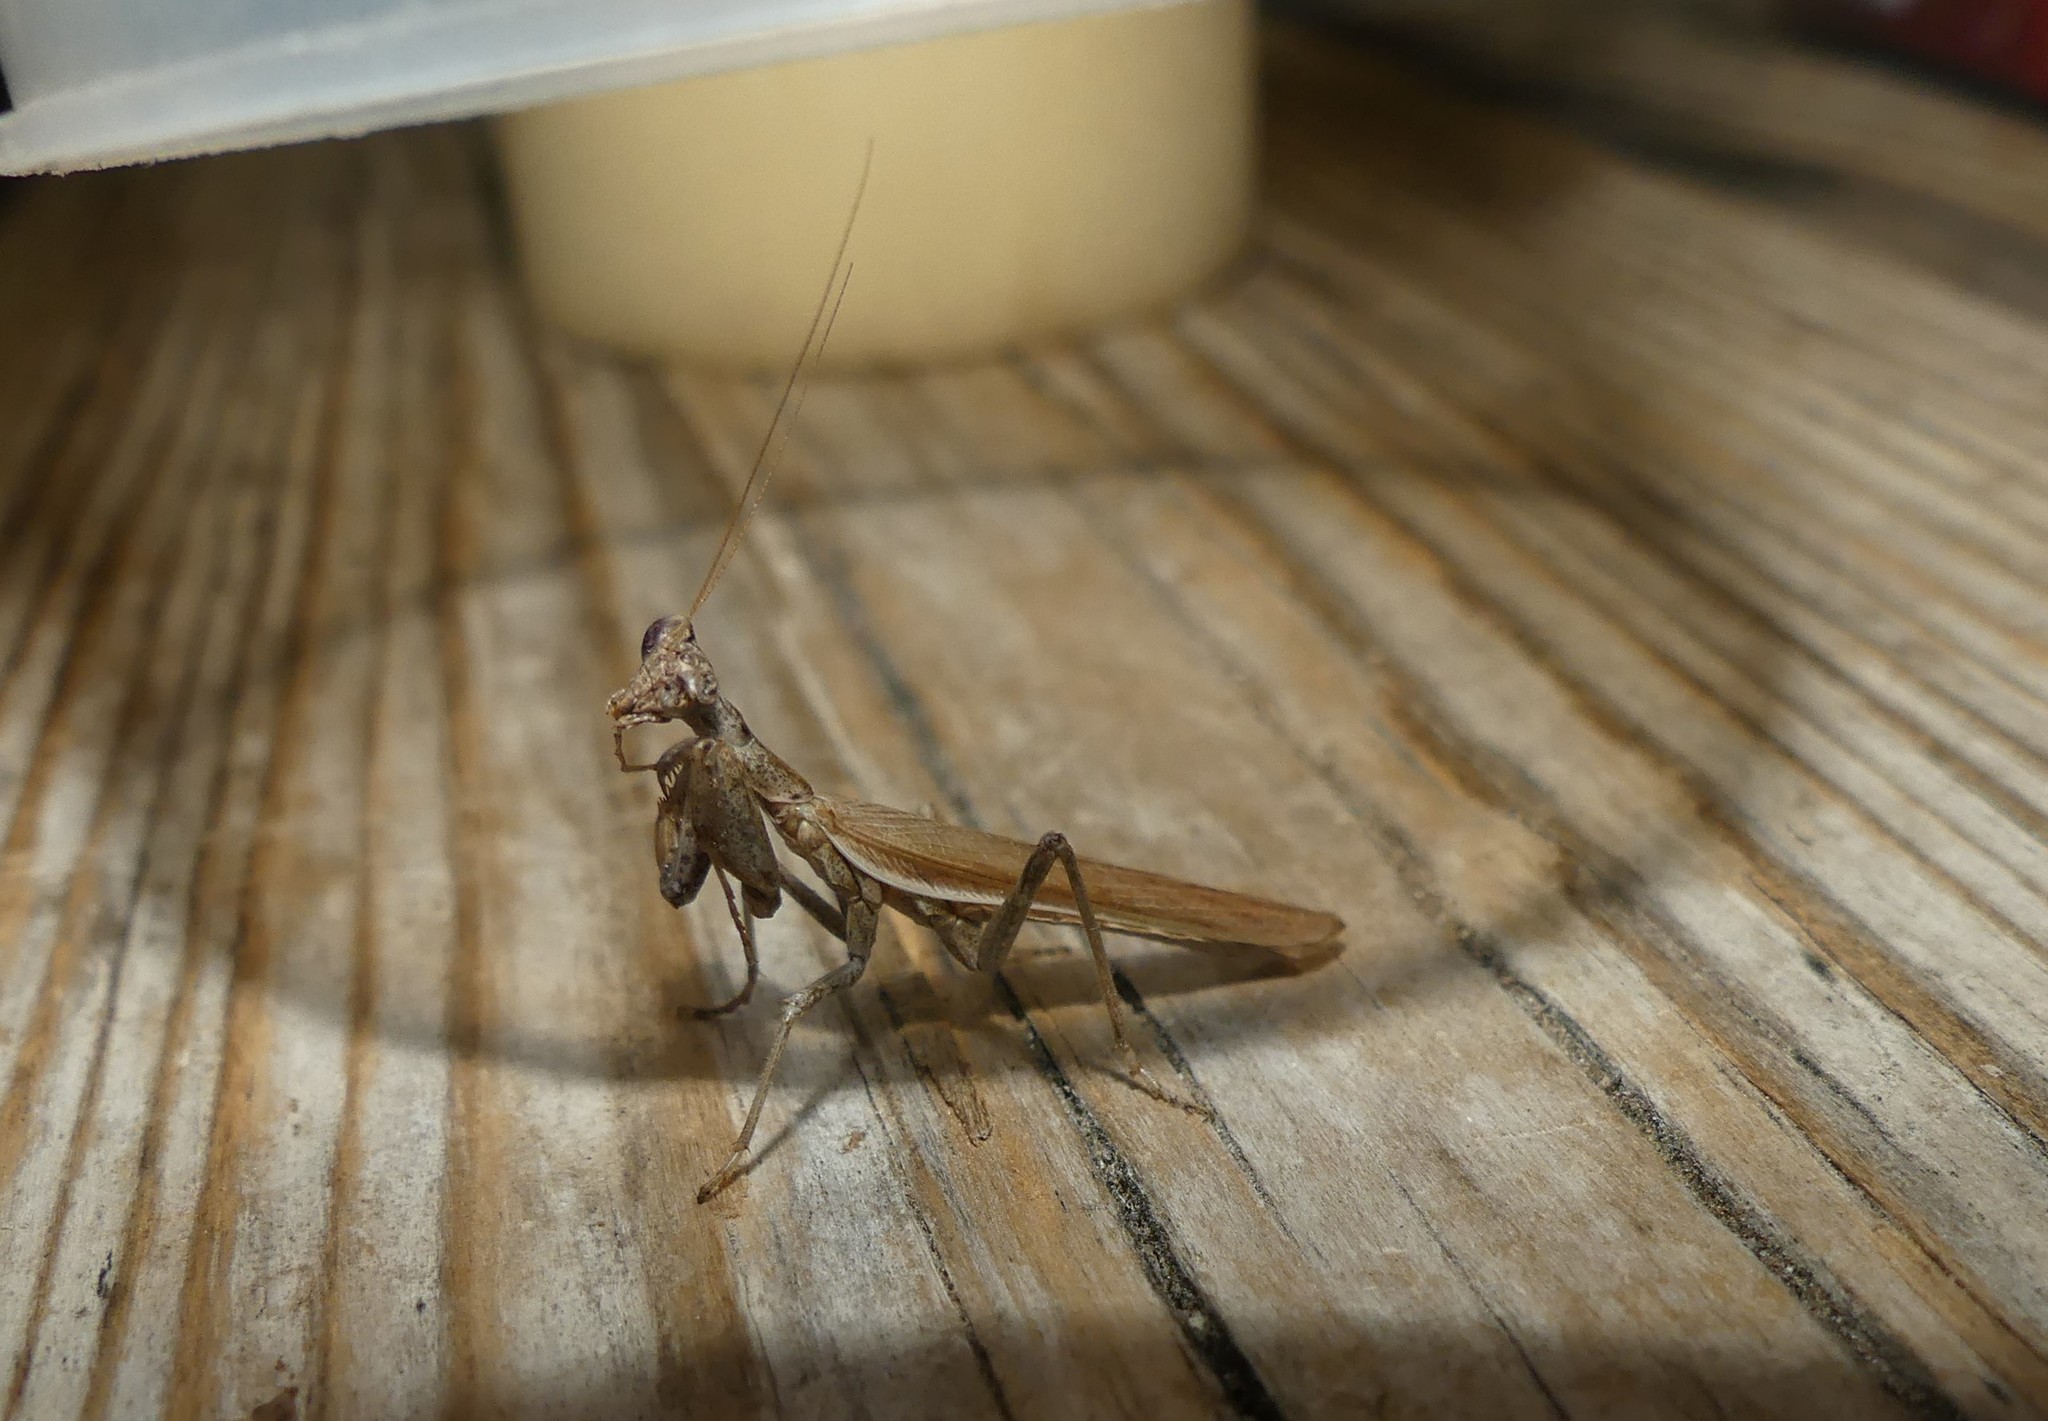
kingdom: Animalia
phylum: Arthropoda
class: Insecta
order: Mantodea
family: Amelidae
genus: Ameles
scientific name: Ameles spallanzania
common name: European dwarf mantis
